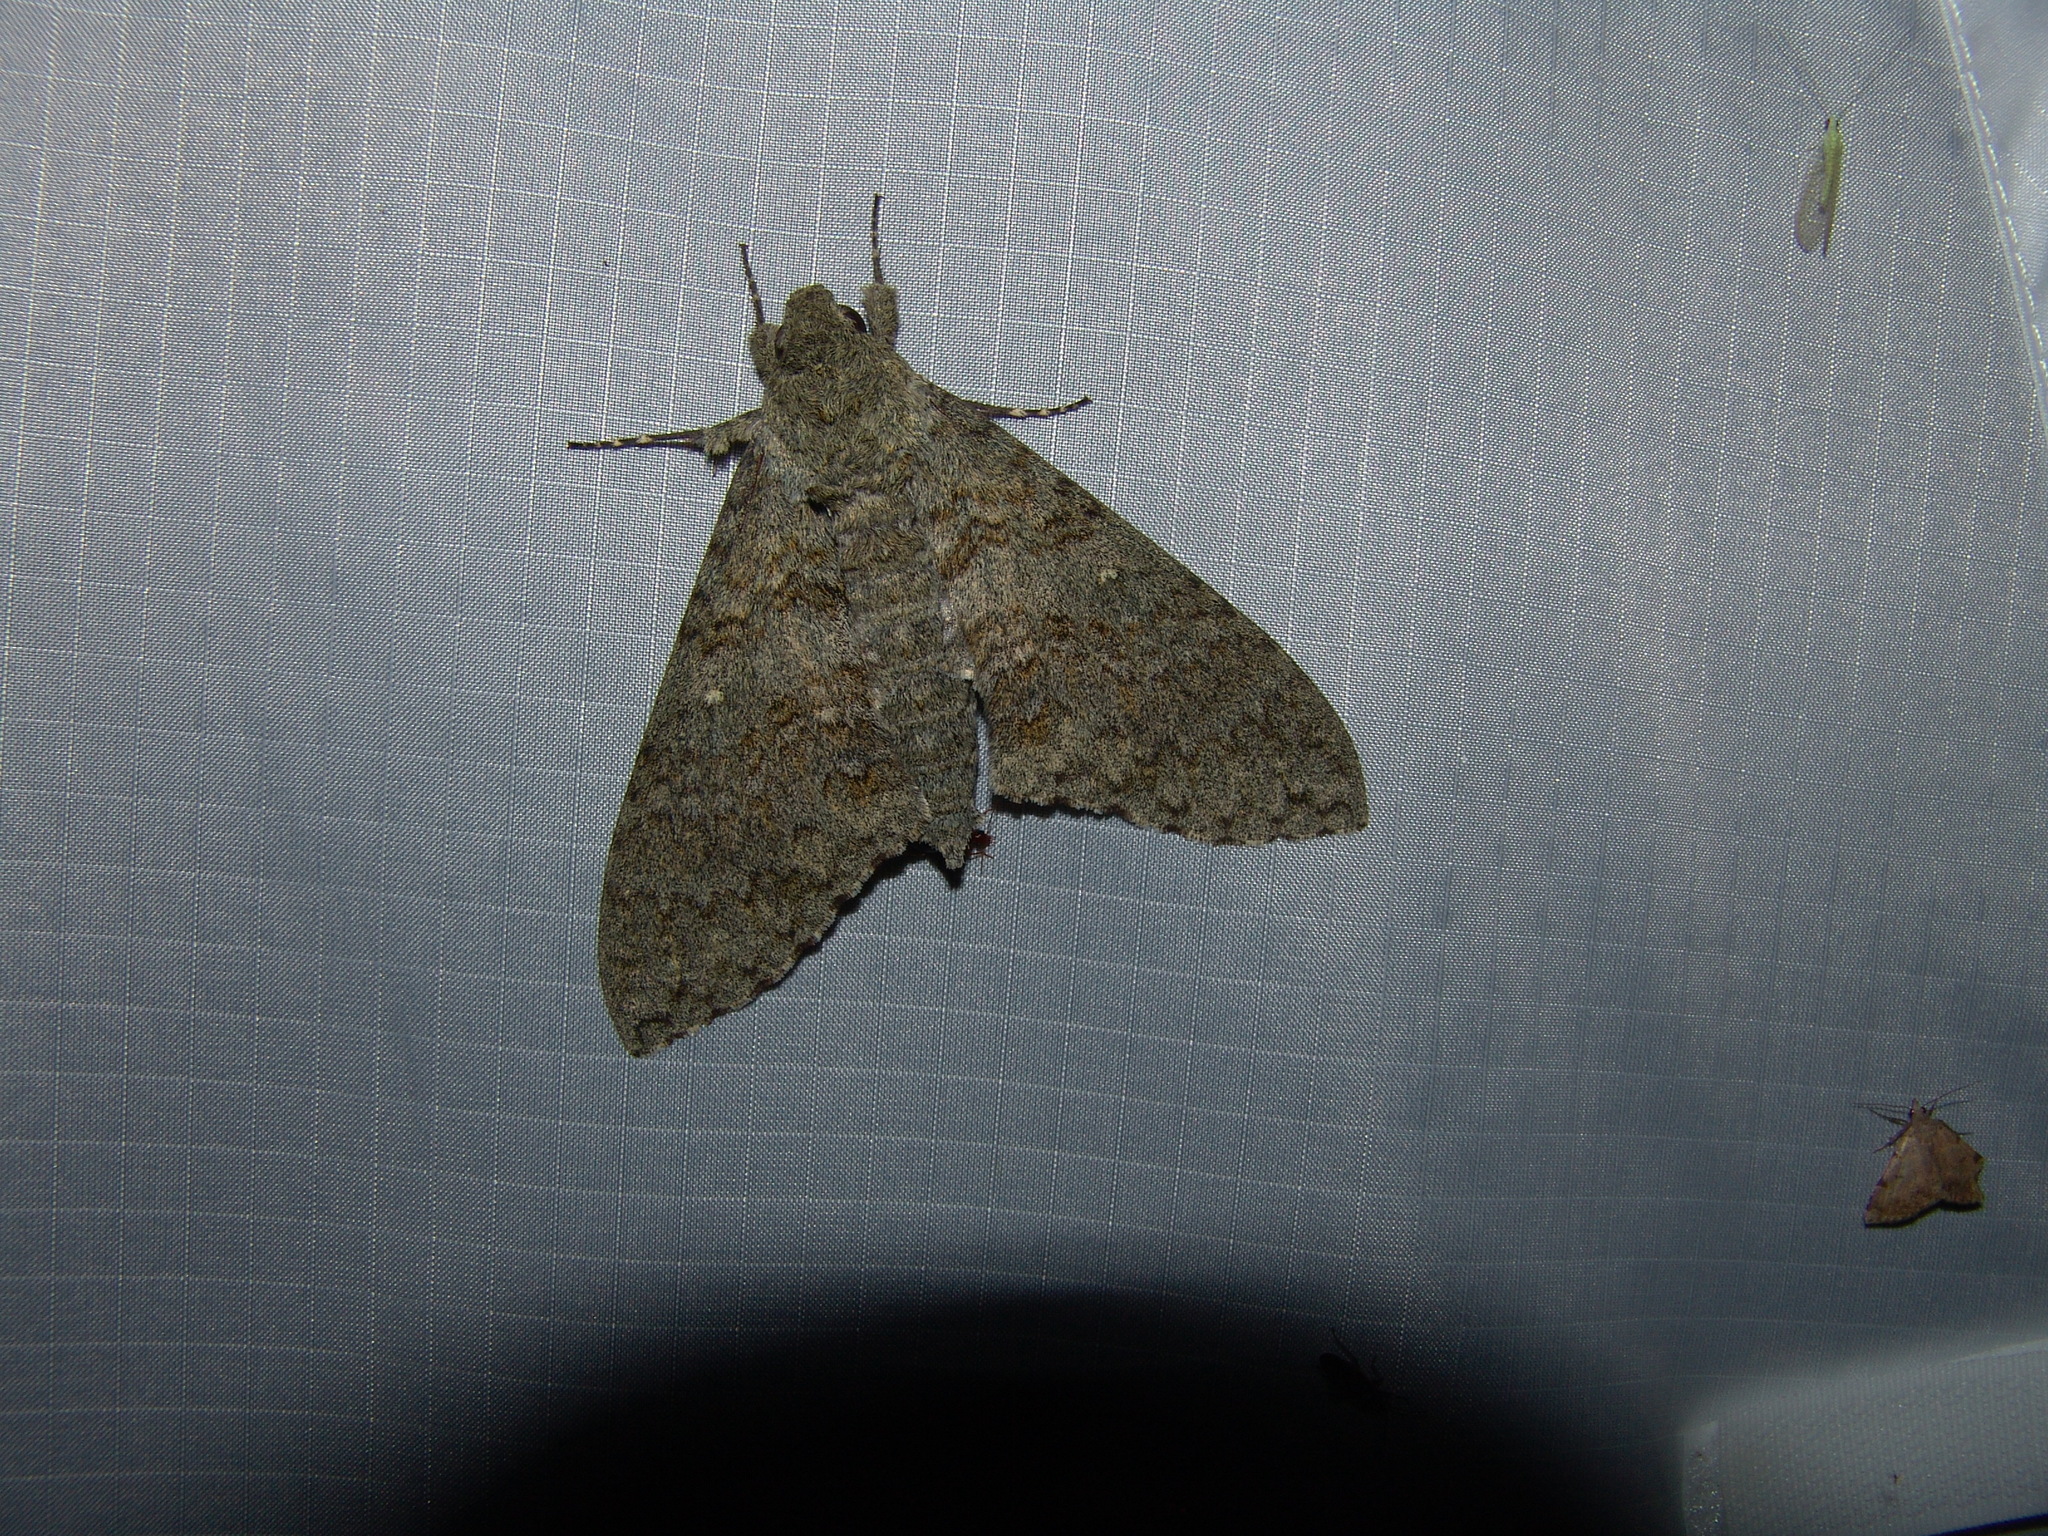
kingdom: Animalia
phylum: Arthropoda
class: Insecta
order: Lepidoptera
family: Sphingidae
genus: Manduca
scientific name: Manduca muscosa
